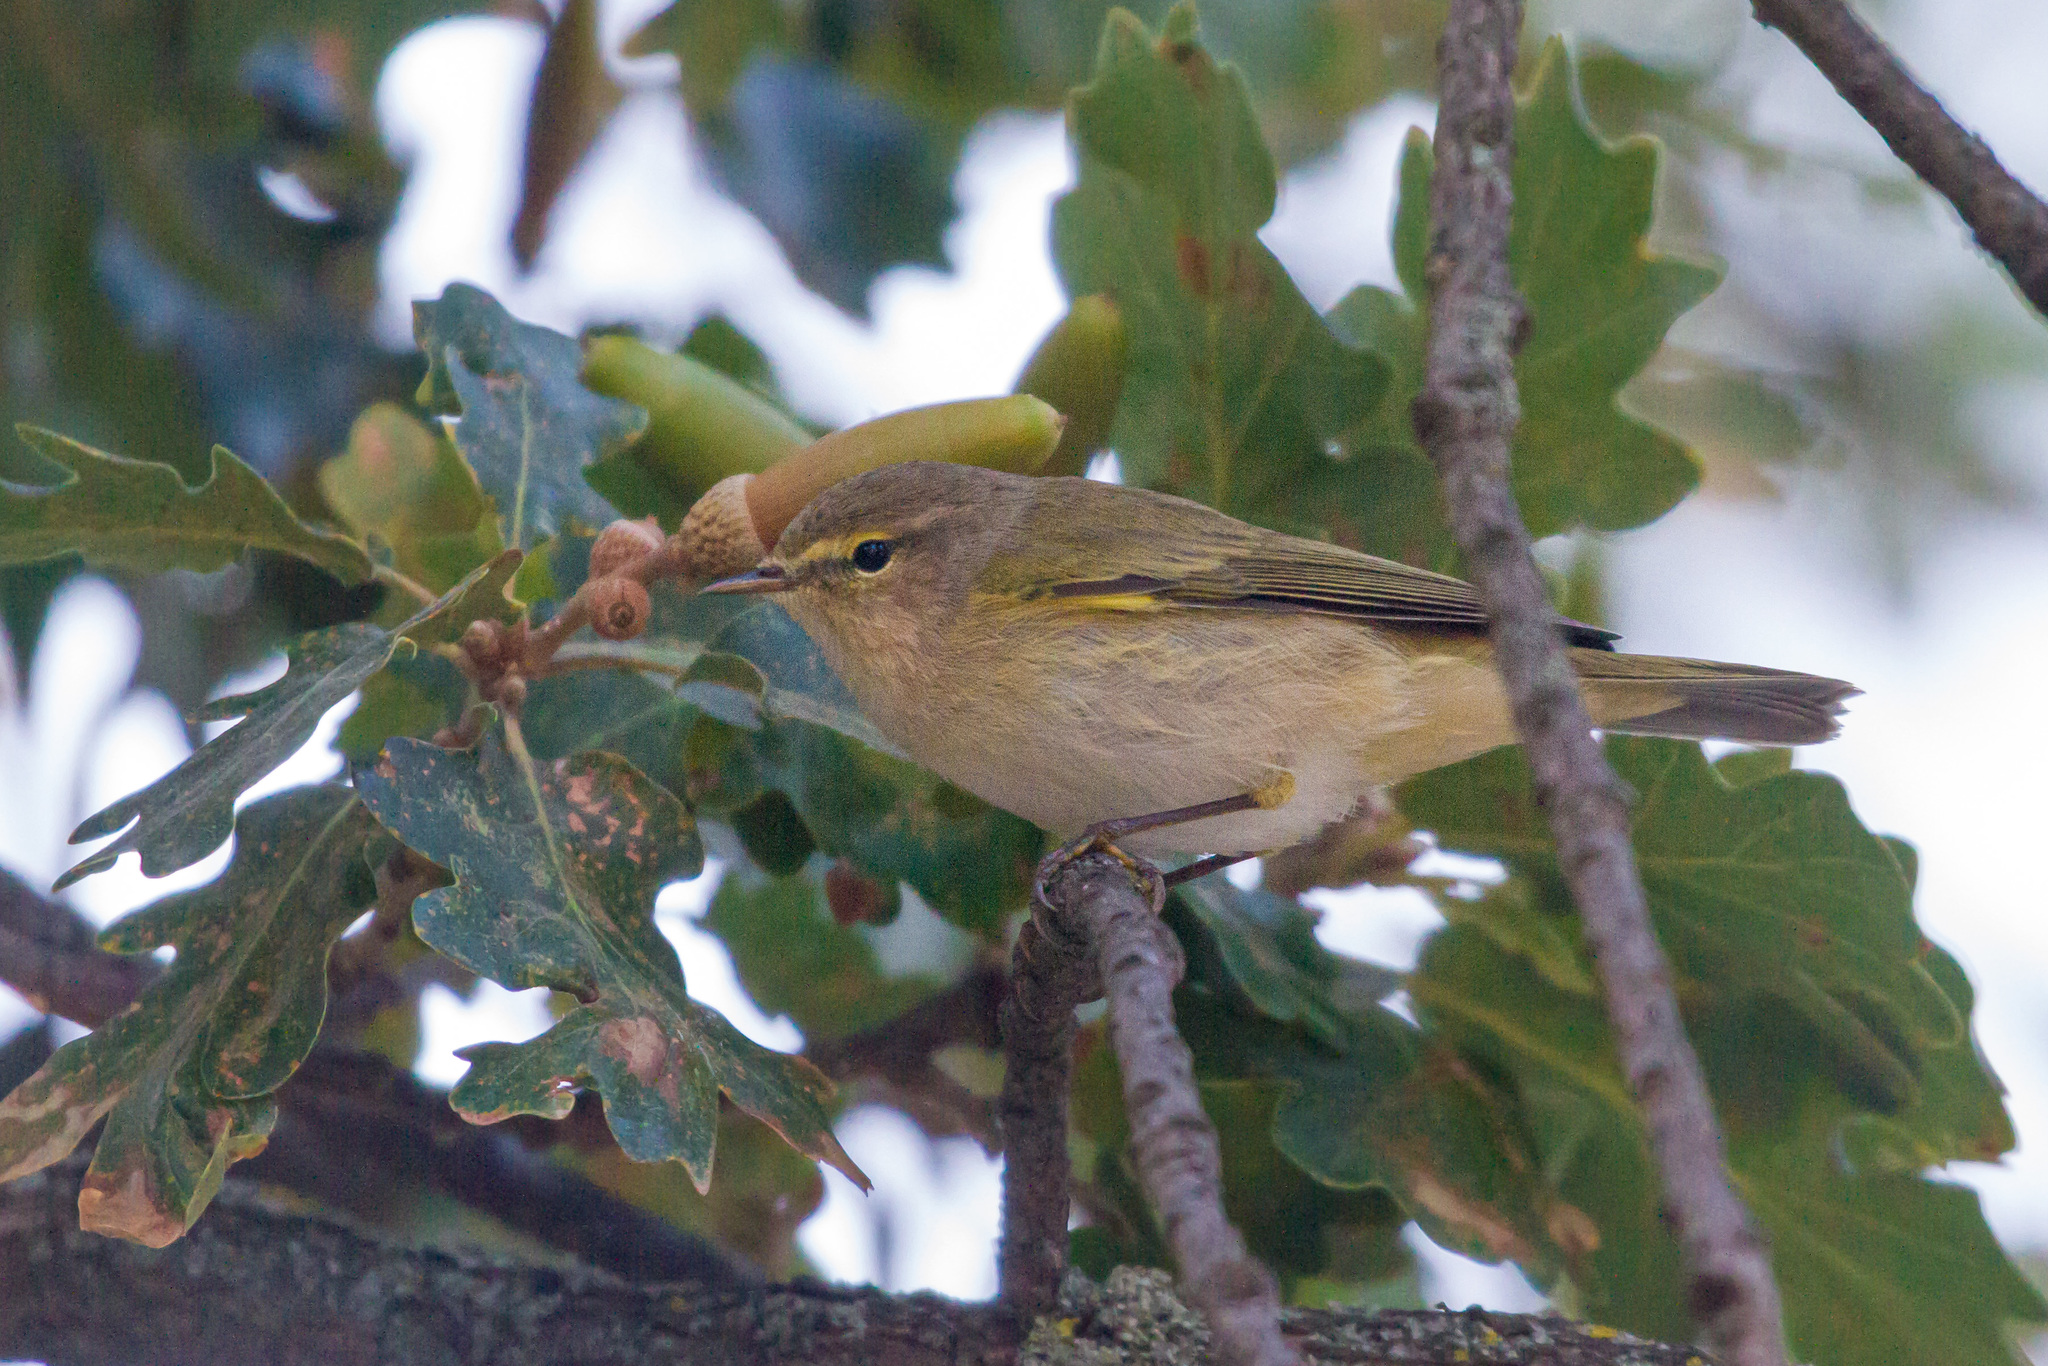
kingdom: Animalia
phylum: Chordata
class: Aves
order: Passeriformes
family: Phylloscopidae
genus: Phylloscopus
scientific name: Phylloscopus collybita
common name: Common chiffchaff
